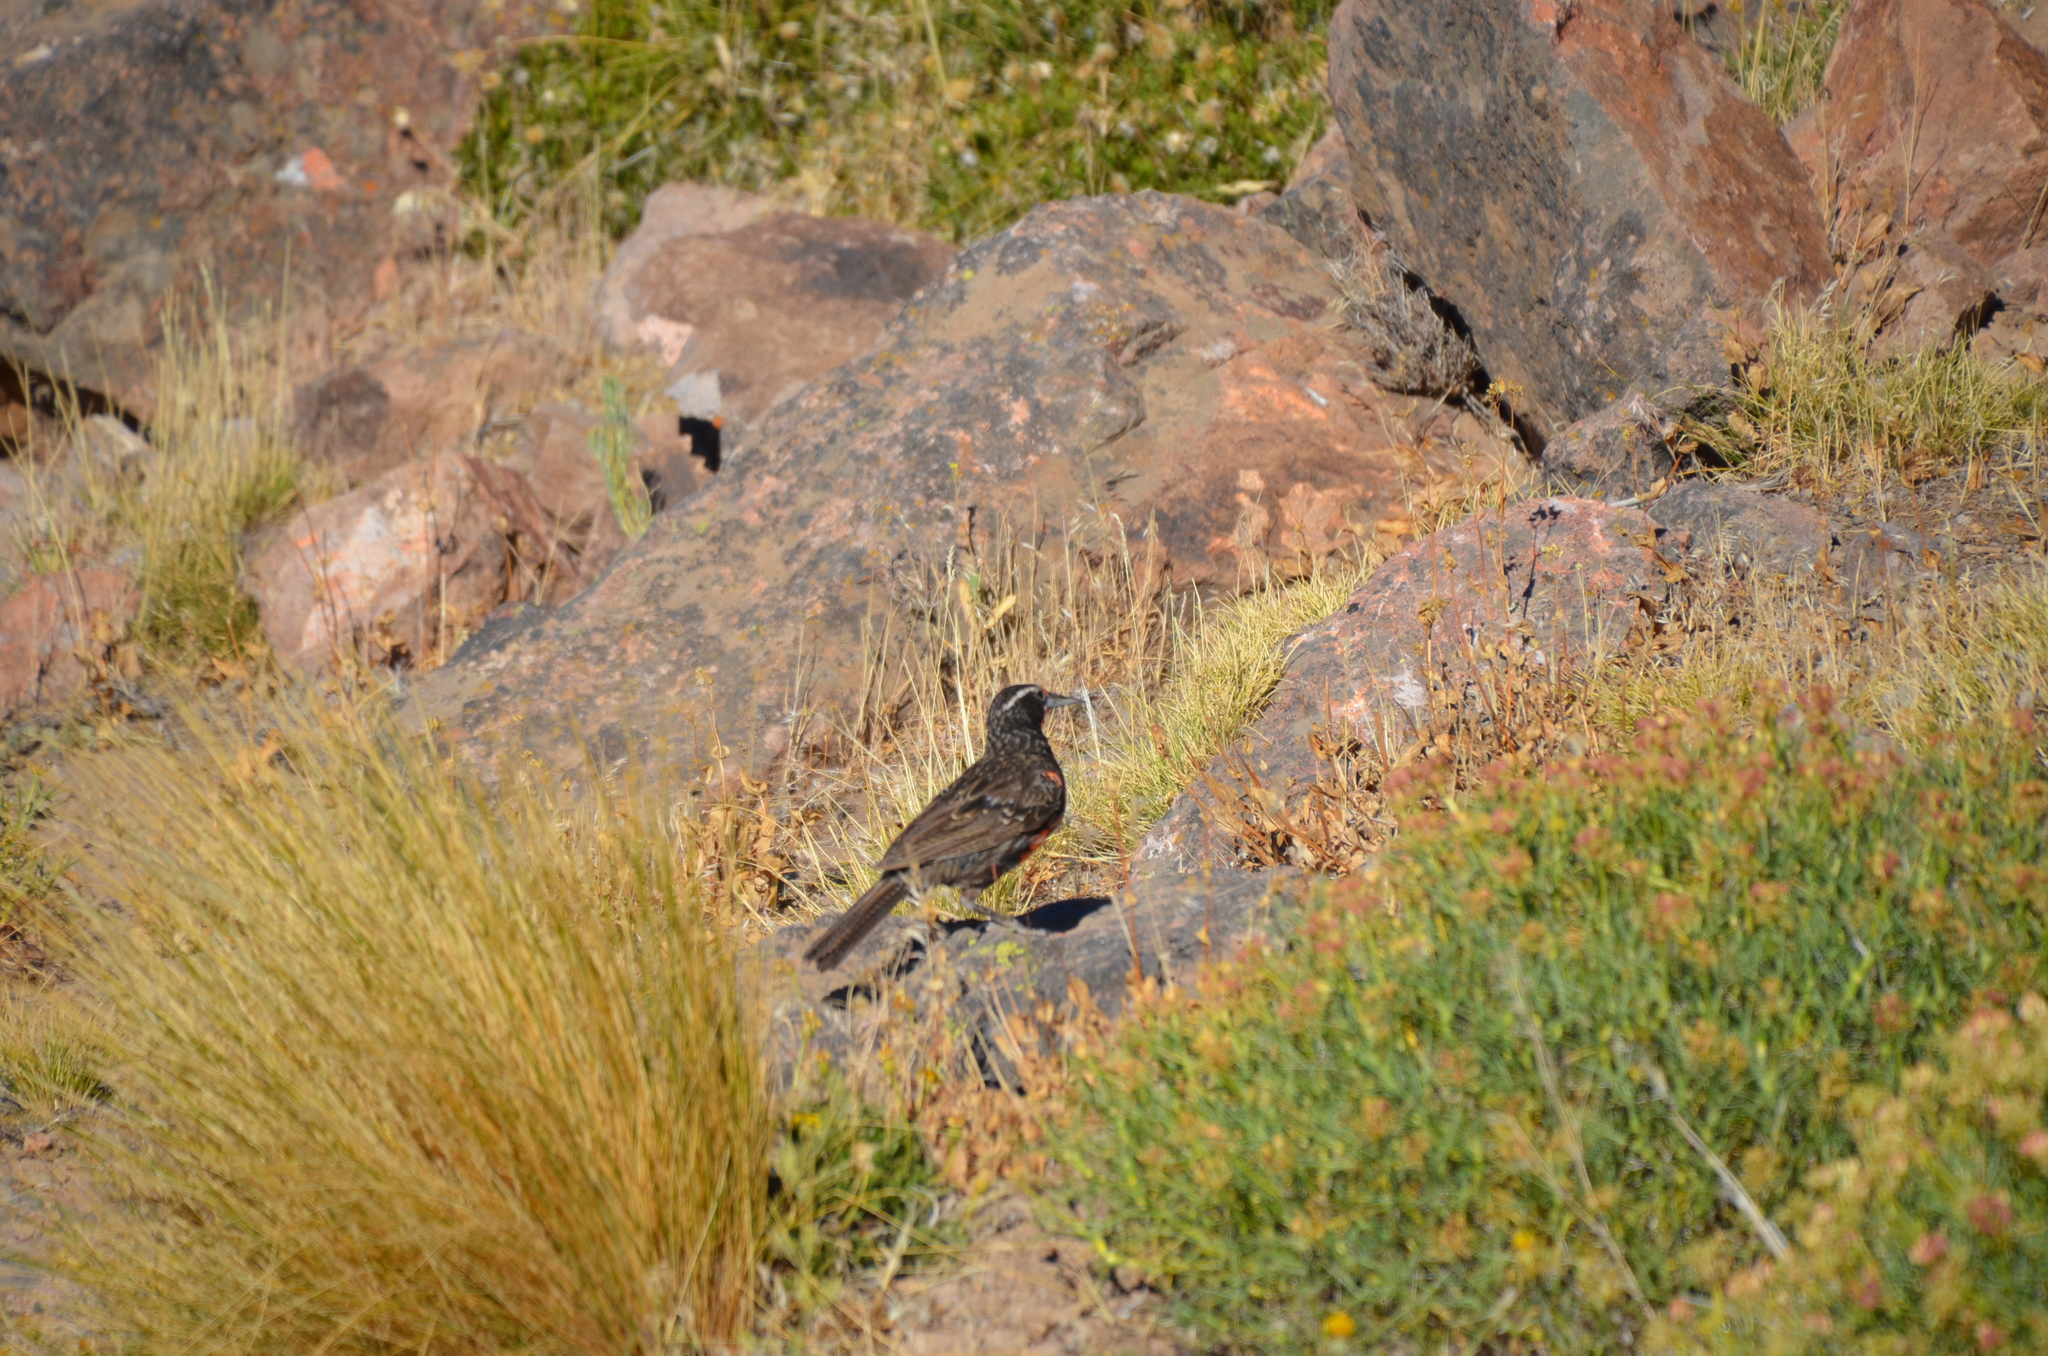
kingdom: Animalia
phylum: Chordata
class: Aves
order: Passeriformes
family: Icteridae
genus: Sturnella
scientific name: Sturnella loyca
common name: Long-tailed meadowlark
